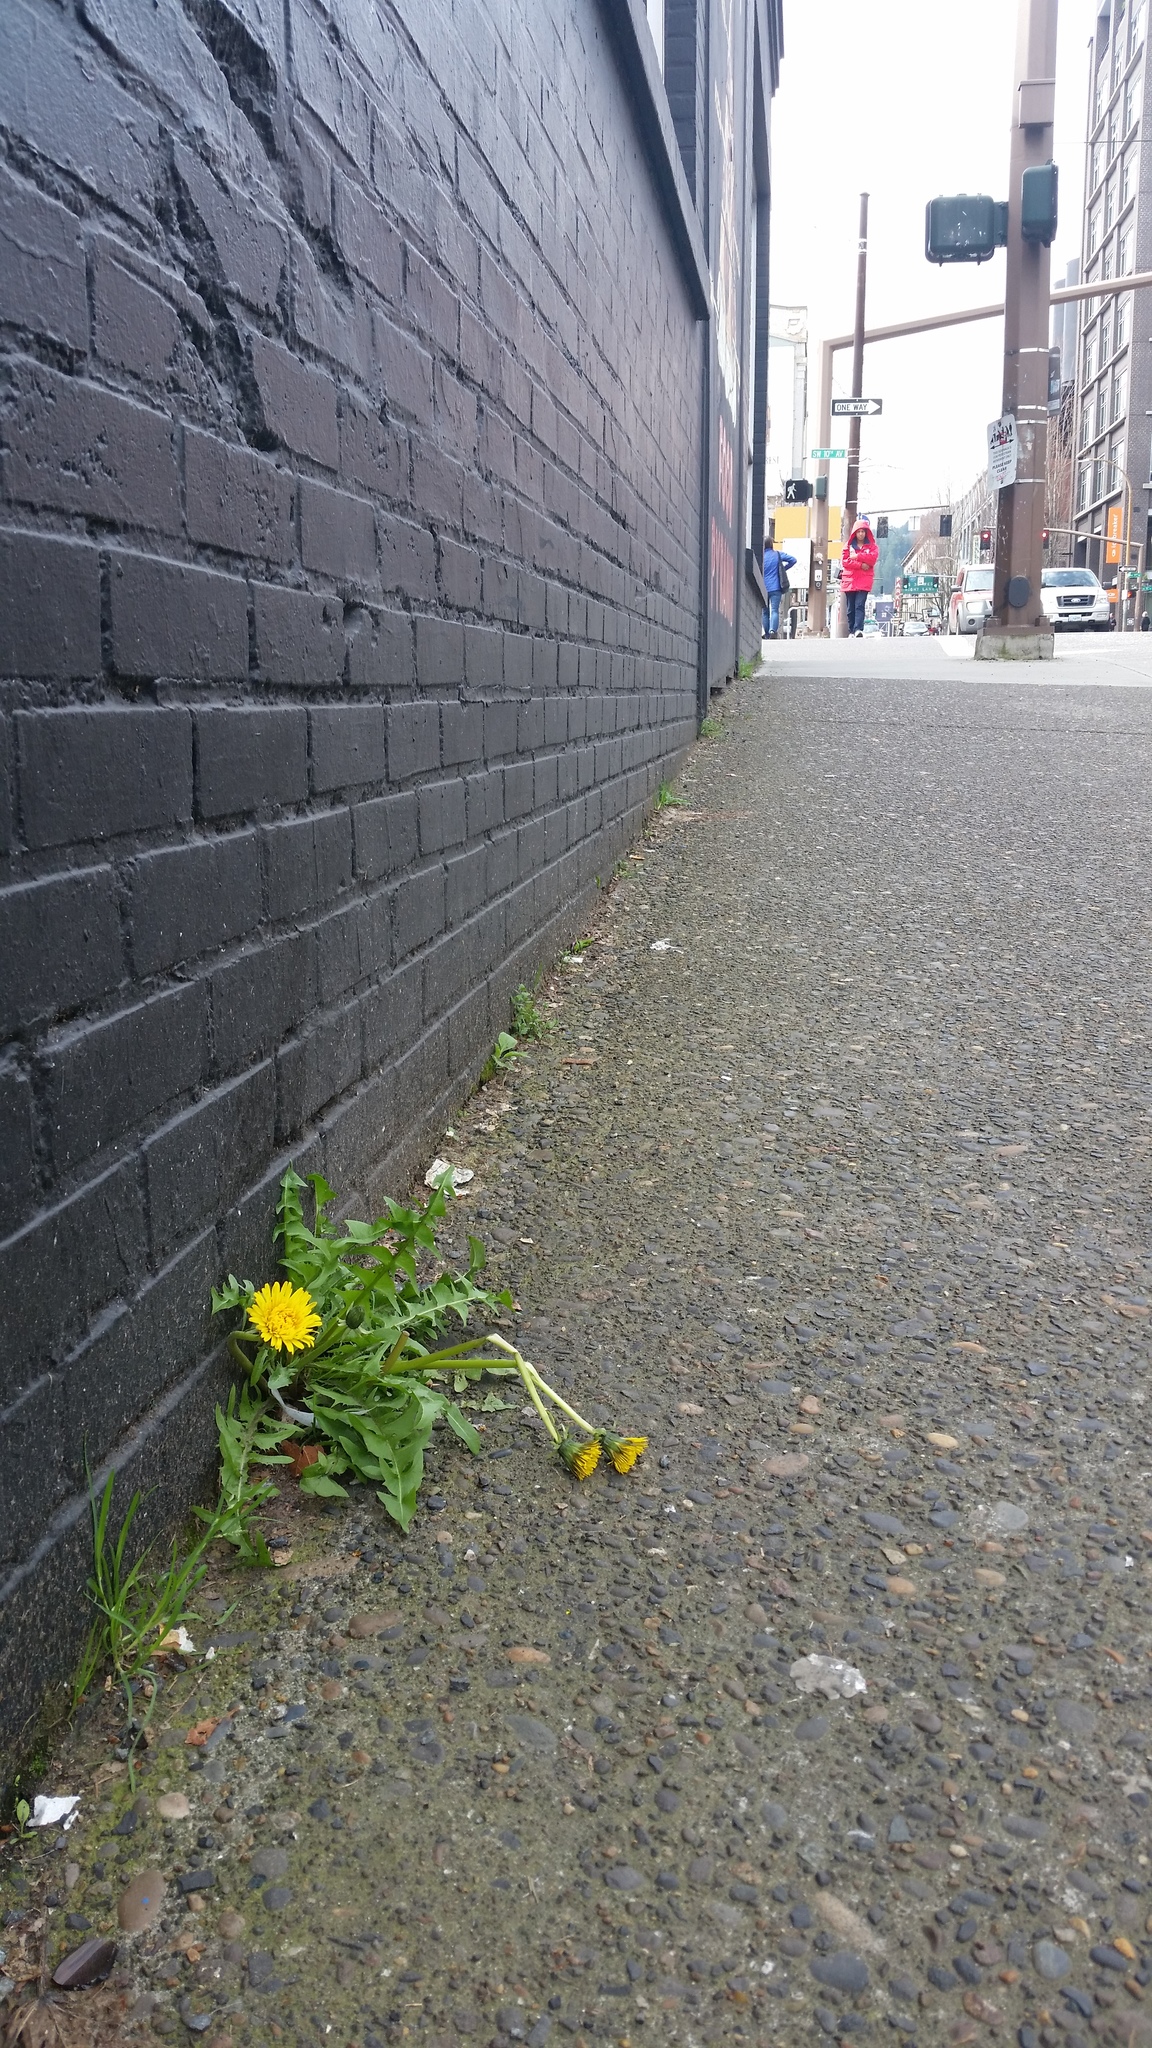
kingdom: Plantae
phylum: Tracheophyta
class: Magnoliopsida
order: Asterales
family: Asteraceae
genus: Taraxacum
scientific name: Taraxacum officinale
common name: Common dandelion
